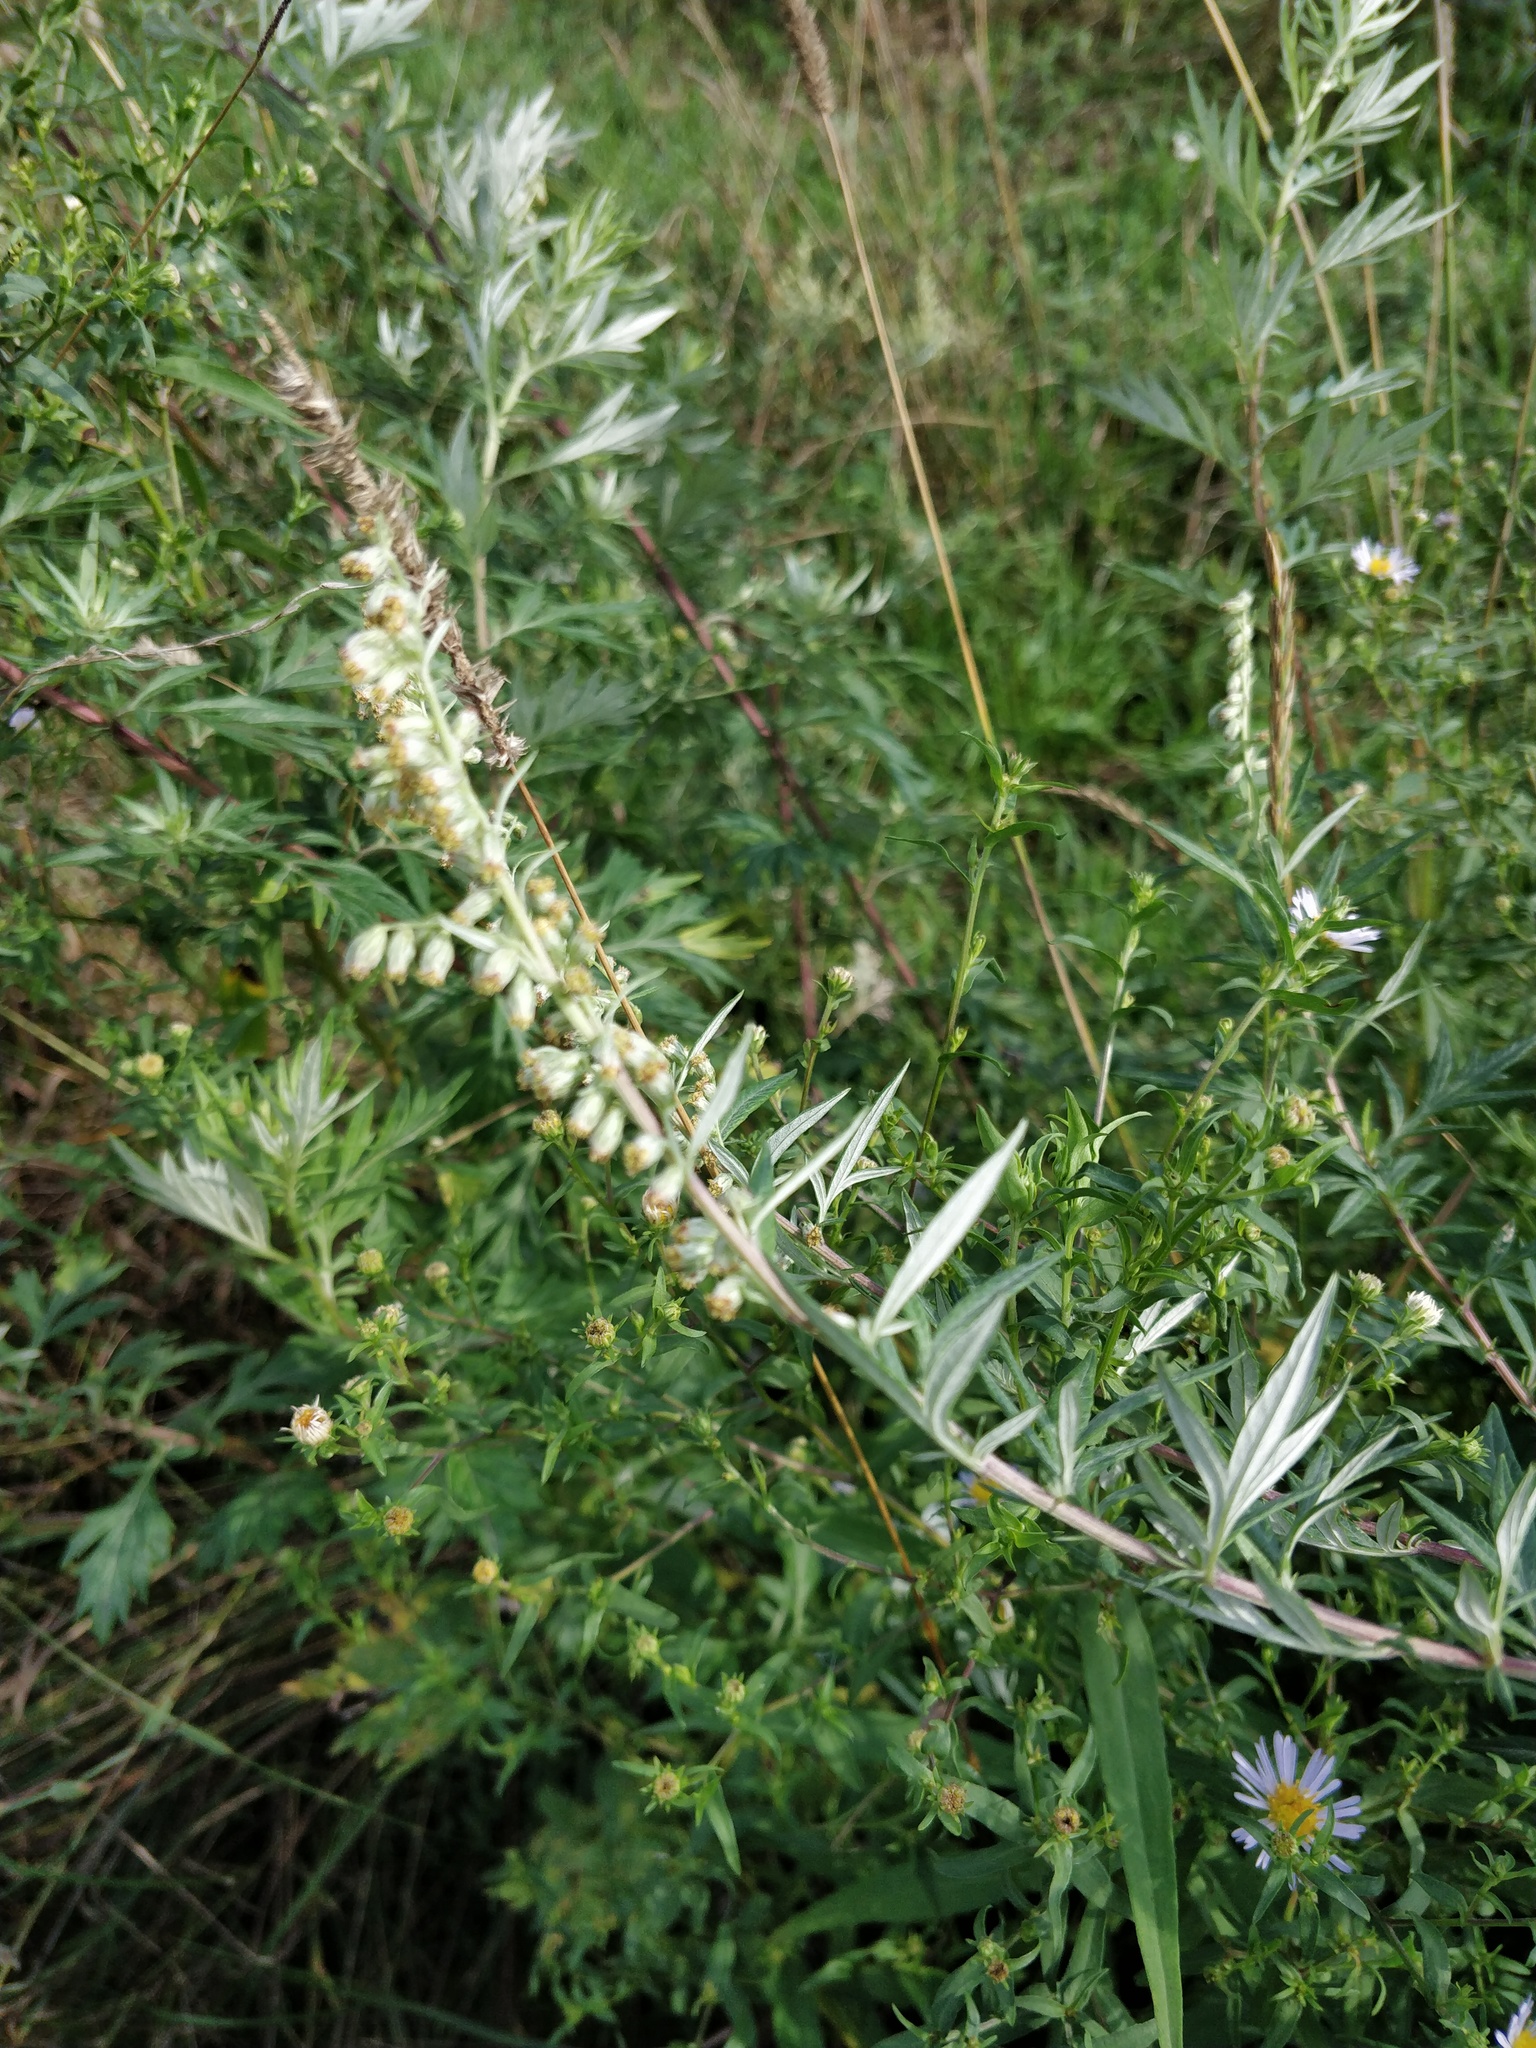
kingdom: Plantae
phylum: Tracheophyta
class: Magnoliopsida
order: Asterales
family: Asteraceae
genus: Artemisia
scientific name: Artemisia vulgaris
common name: Mugwort
